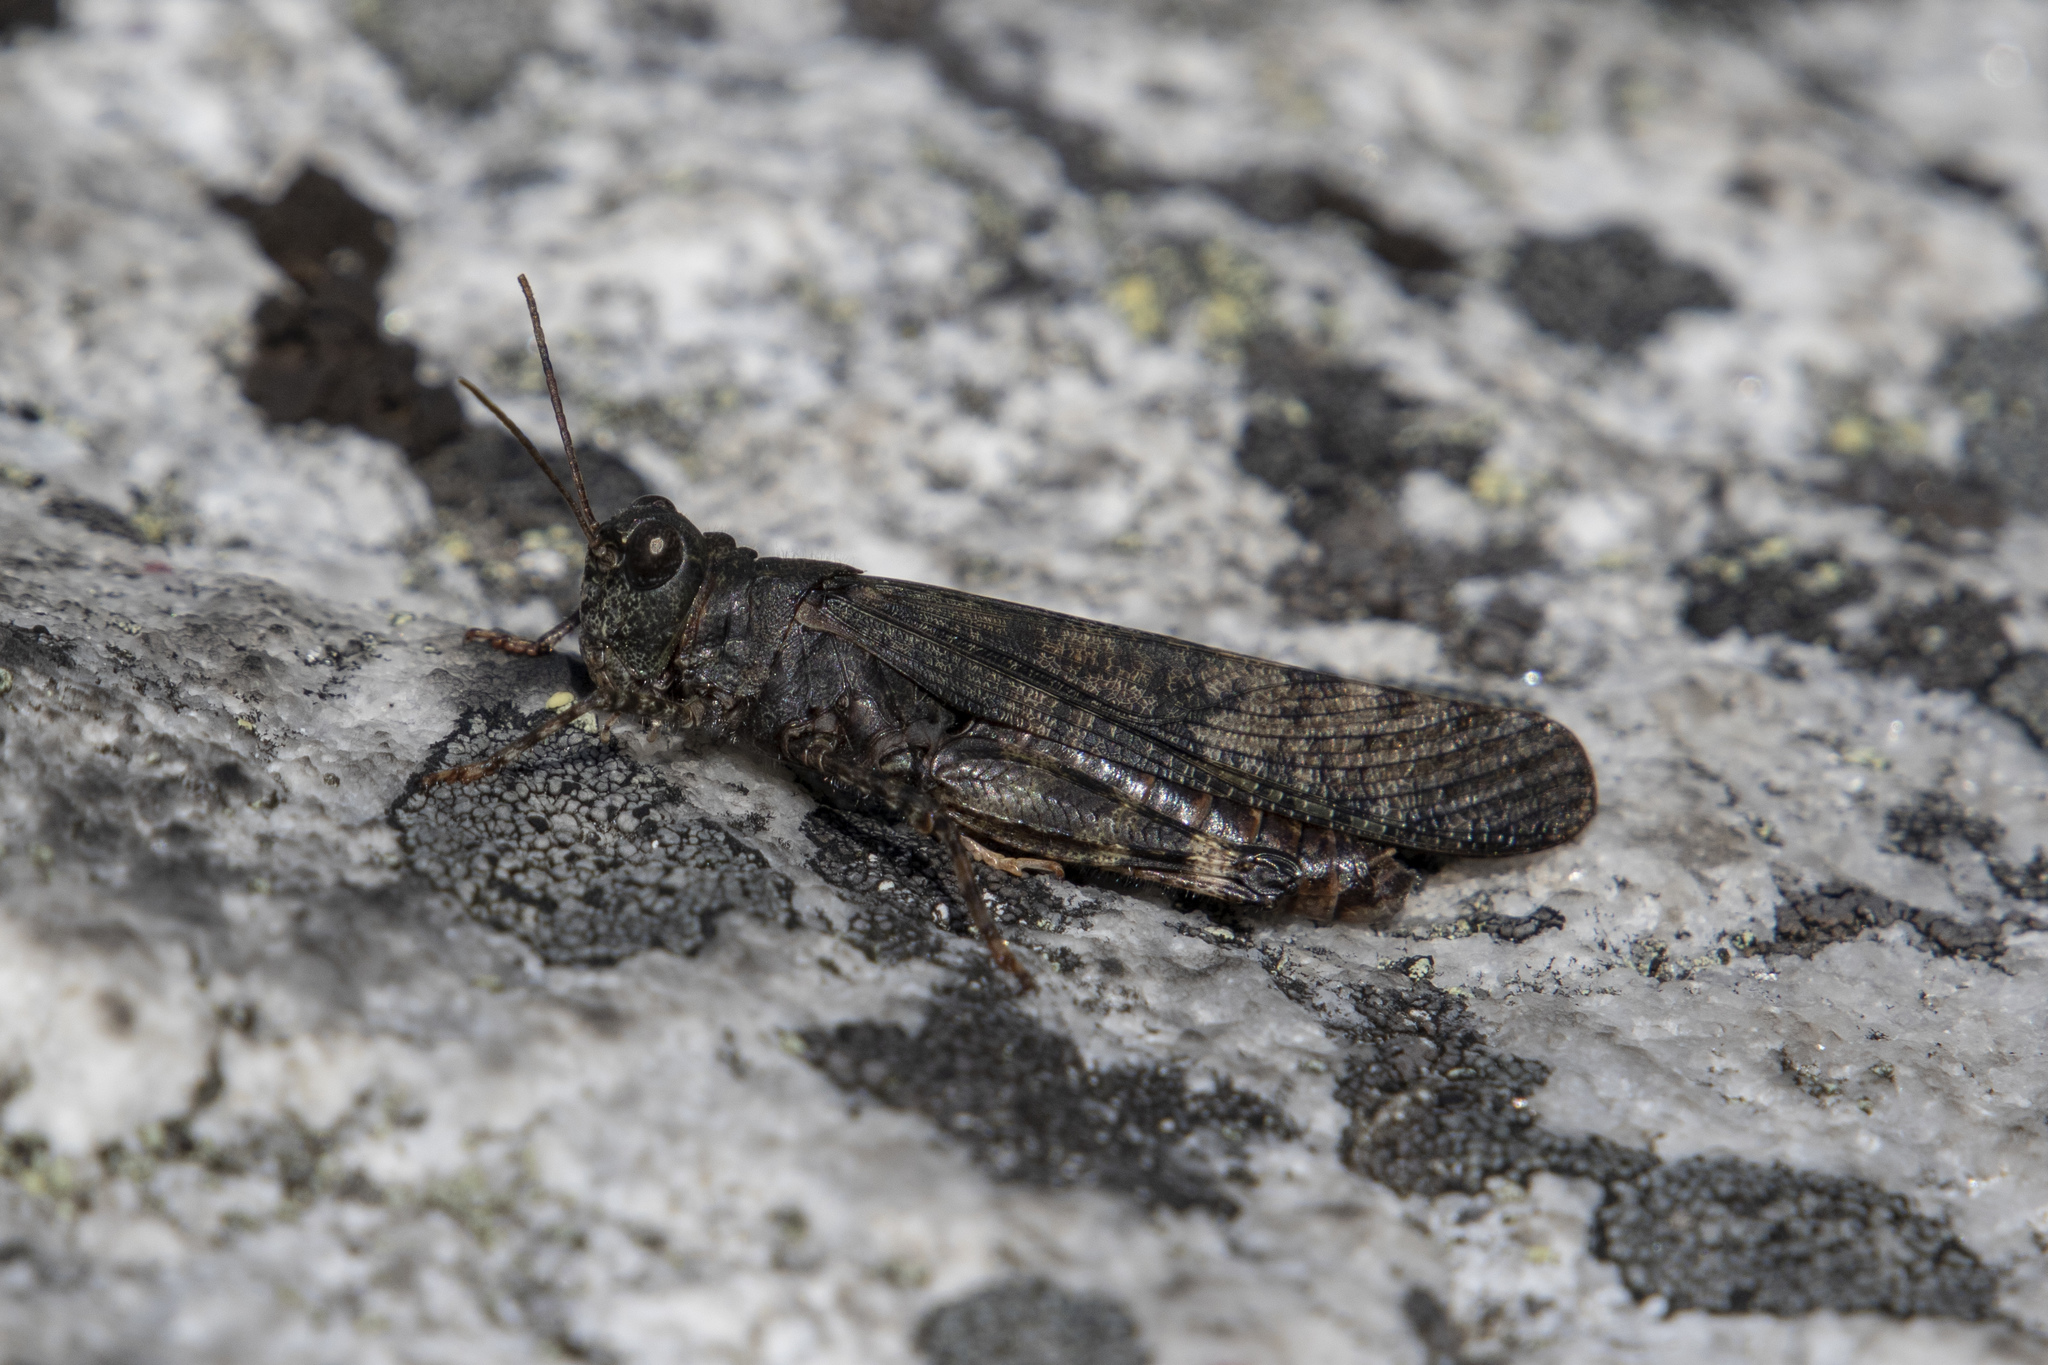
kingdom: Animalia
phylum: Arthropoda
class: Insecta
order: Orthoptera
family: Acrididae
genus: Trimerotropis
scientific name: Trimerotropis verruculata
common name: Crackling forest grasshopper
